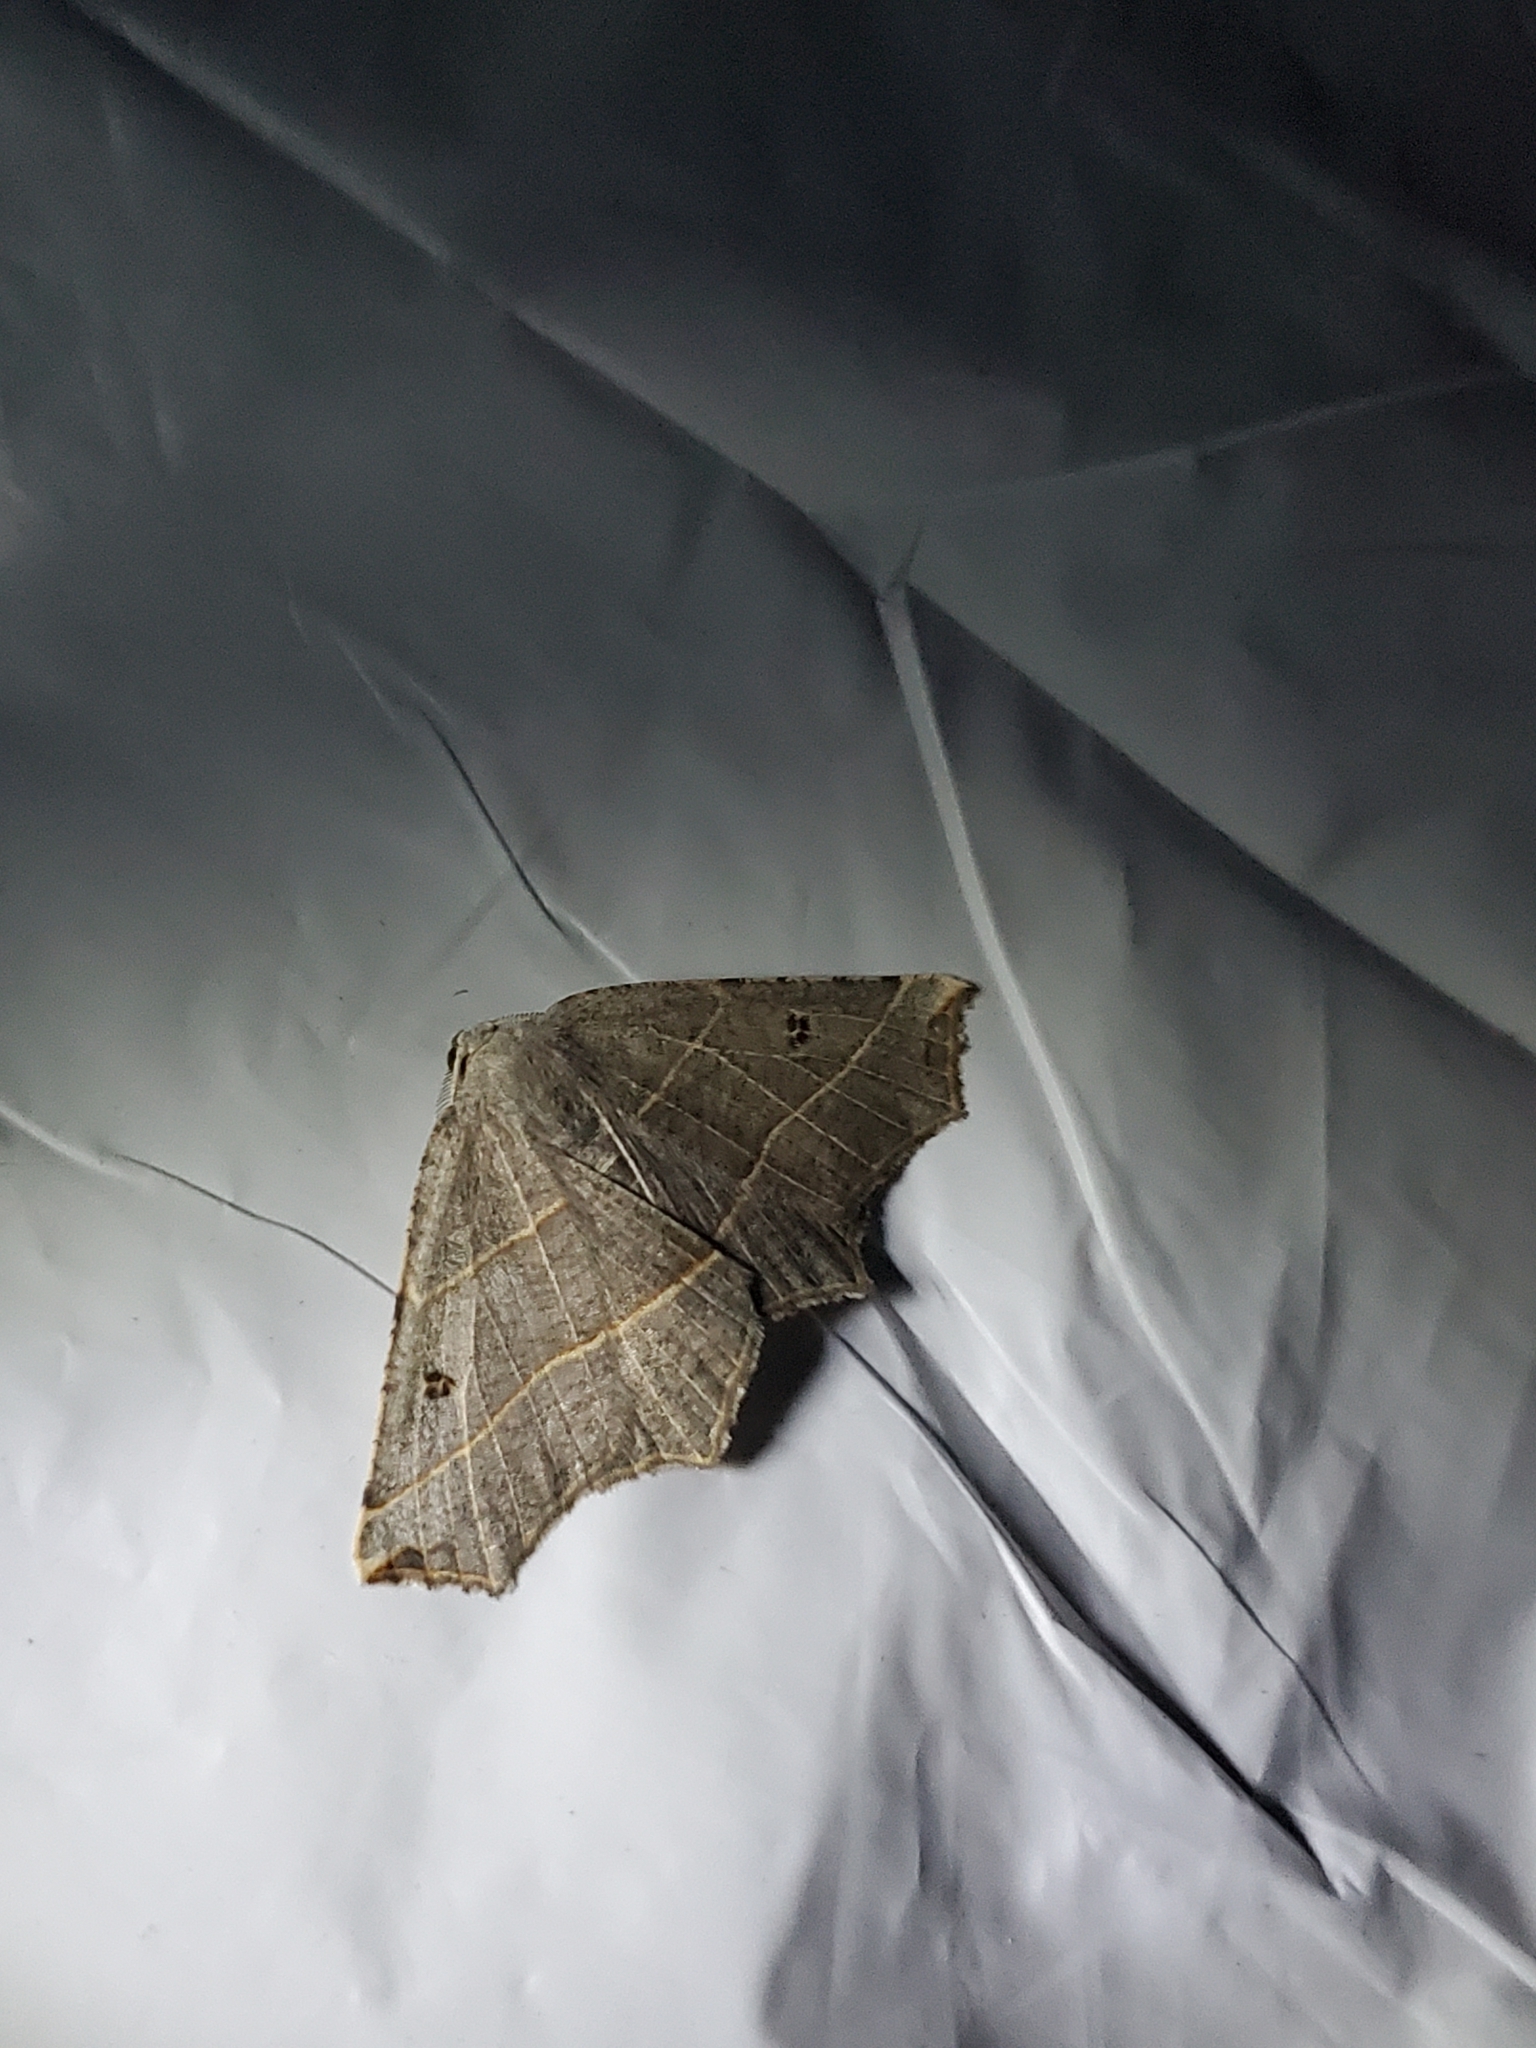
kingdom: Animalia
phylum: Arthropoda
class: Insecta
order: Lepidoptera
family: Geometridae
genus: Metanema
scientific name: Metanema inatomaria
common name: Pale metanema
